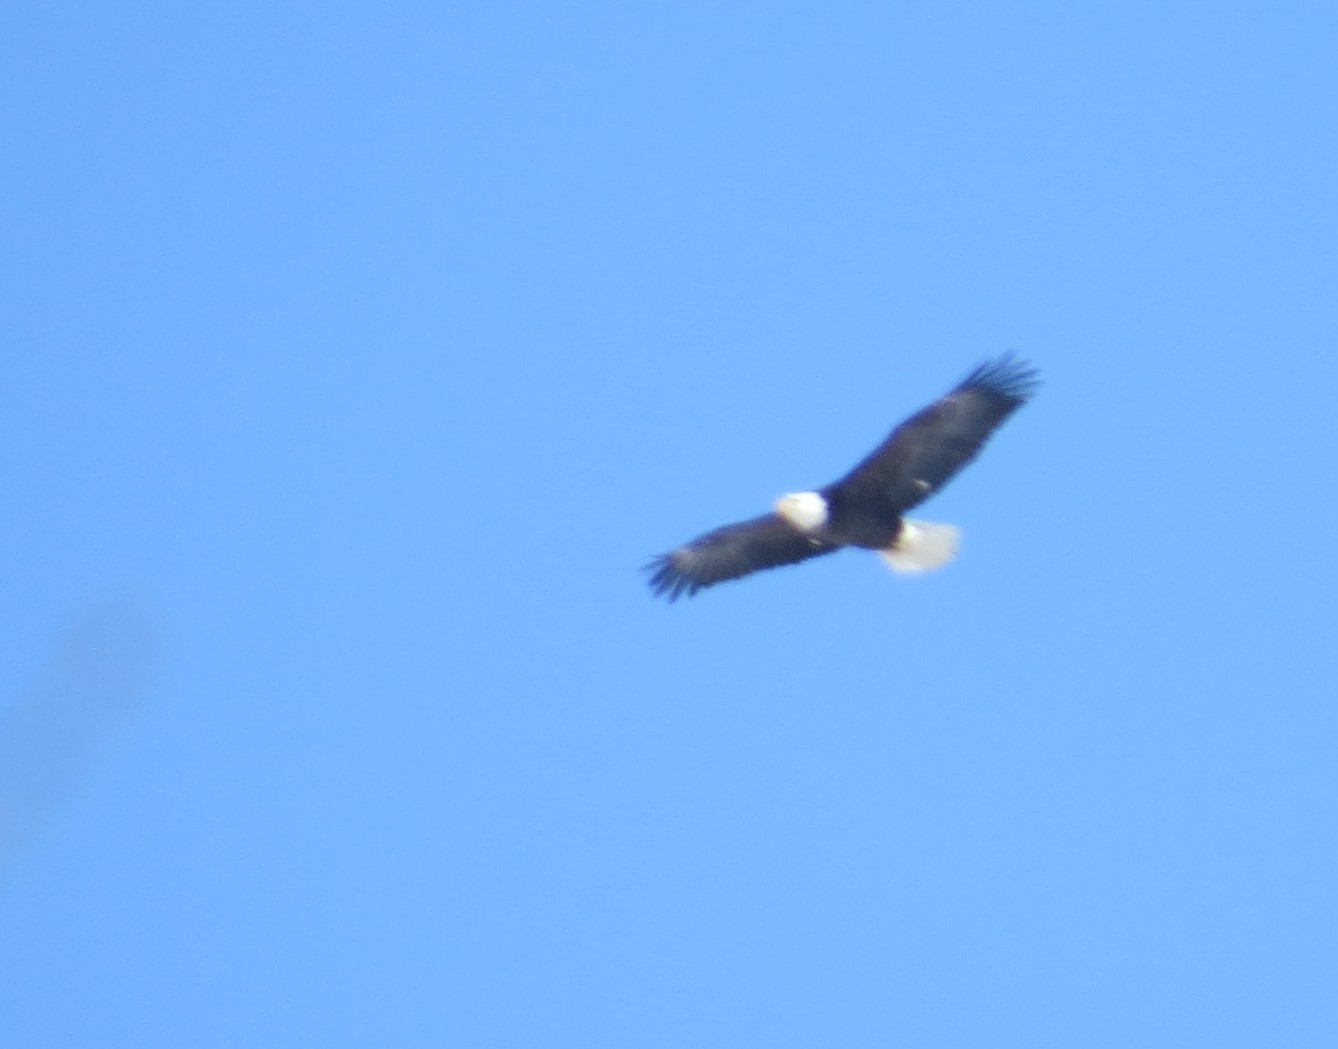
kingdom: Animalia
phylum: Chordata
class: Aves
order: Accipitriformes
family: Accipitridae
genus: Haliaeetus
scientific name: Haliaeetus leucocephalus
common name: Bald eagle
